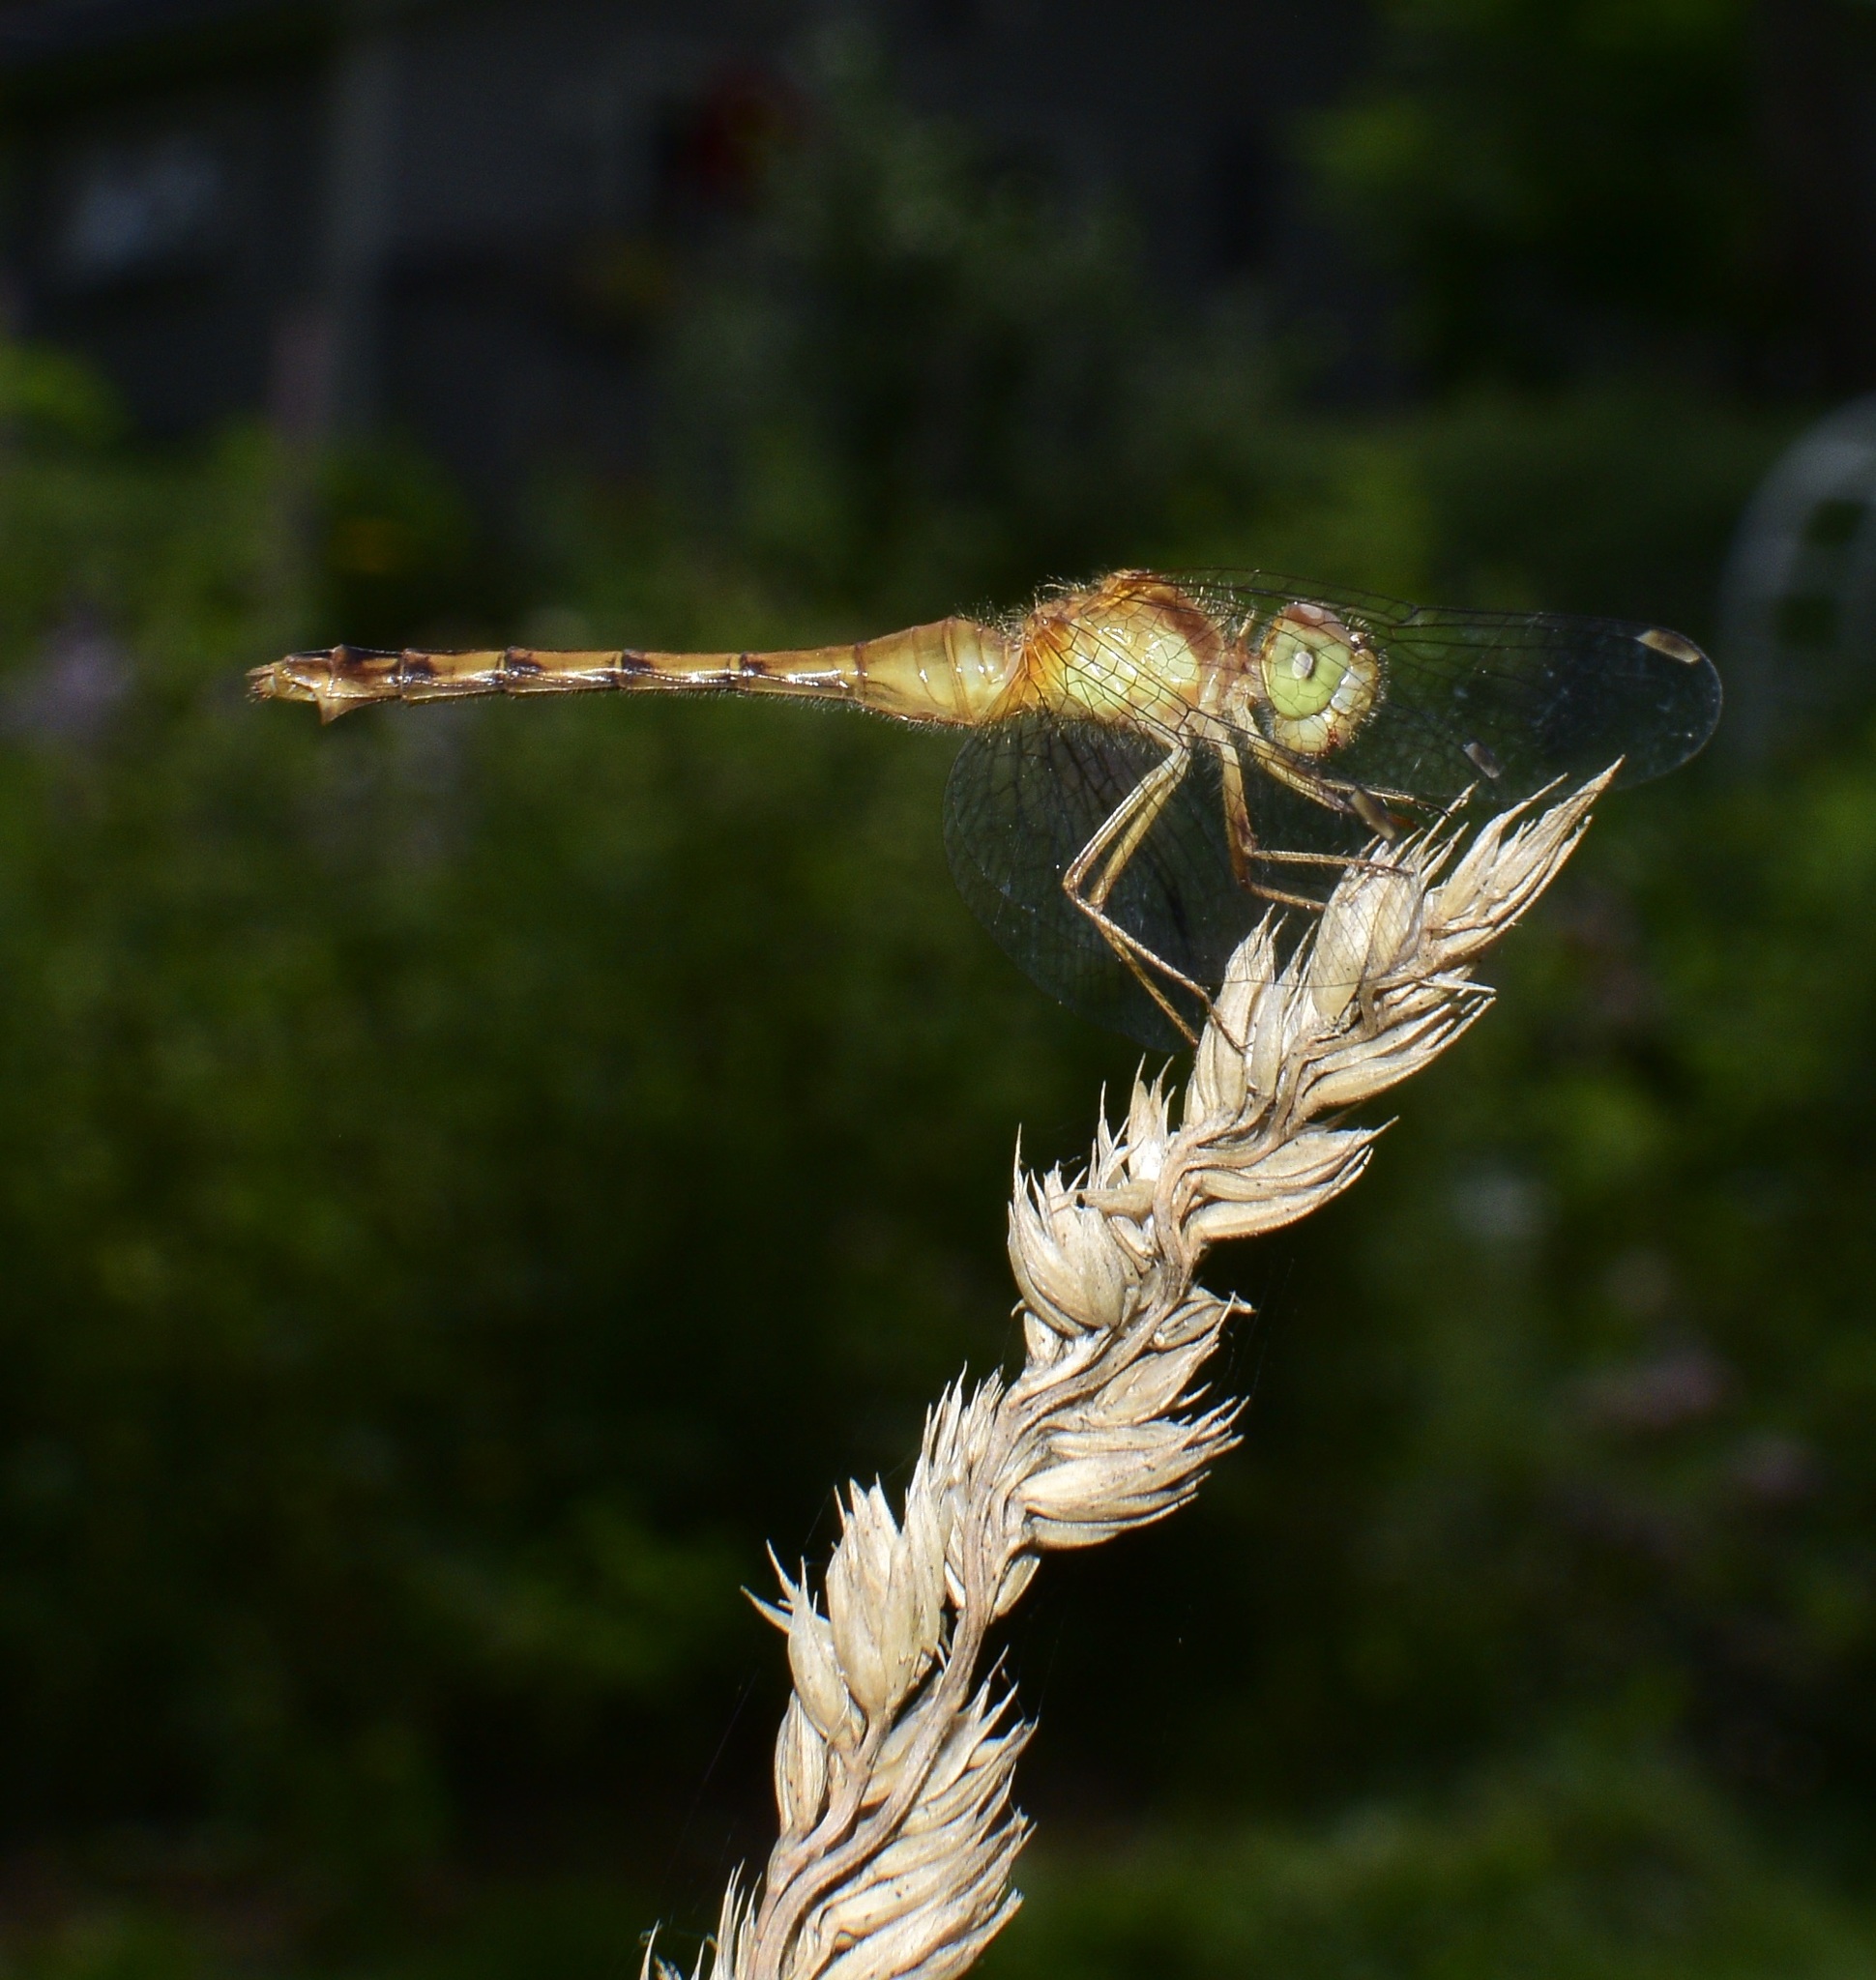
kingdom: Animalia
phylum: Arthropoda
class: Insecta
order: Odonata
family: Libellulidae
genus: Sympetrum
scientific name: Sympetrum vicinum
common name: Autumn meadowhawk
